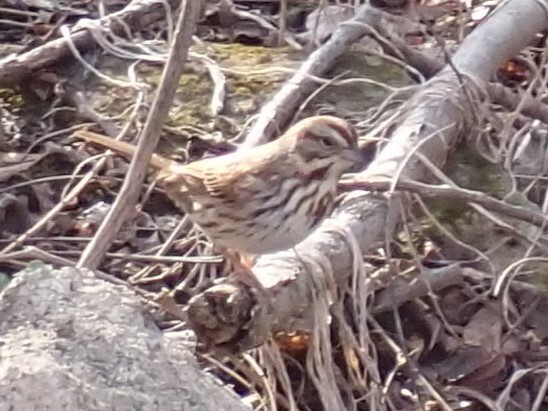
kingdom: Animalia
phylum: Chordata
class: Aves
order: Passeriformes
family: Passerellidae
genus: Melospiza
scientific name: Melospiza melodia
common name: Song sparrow
